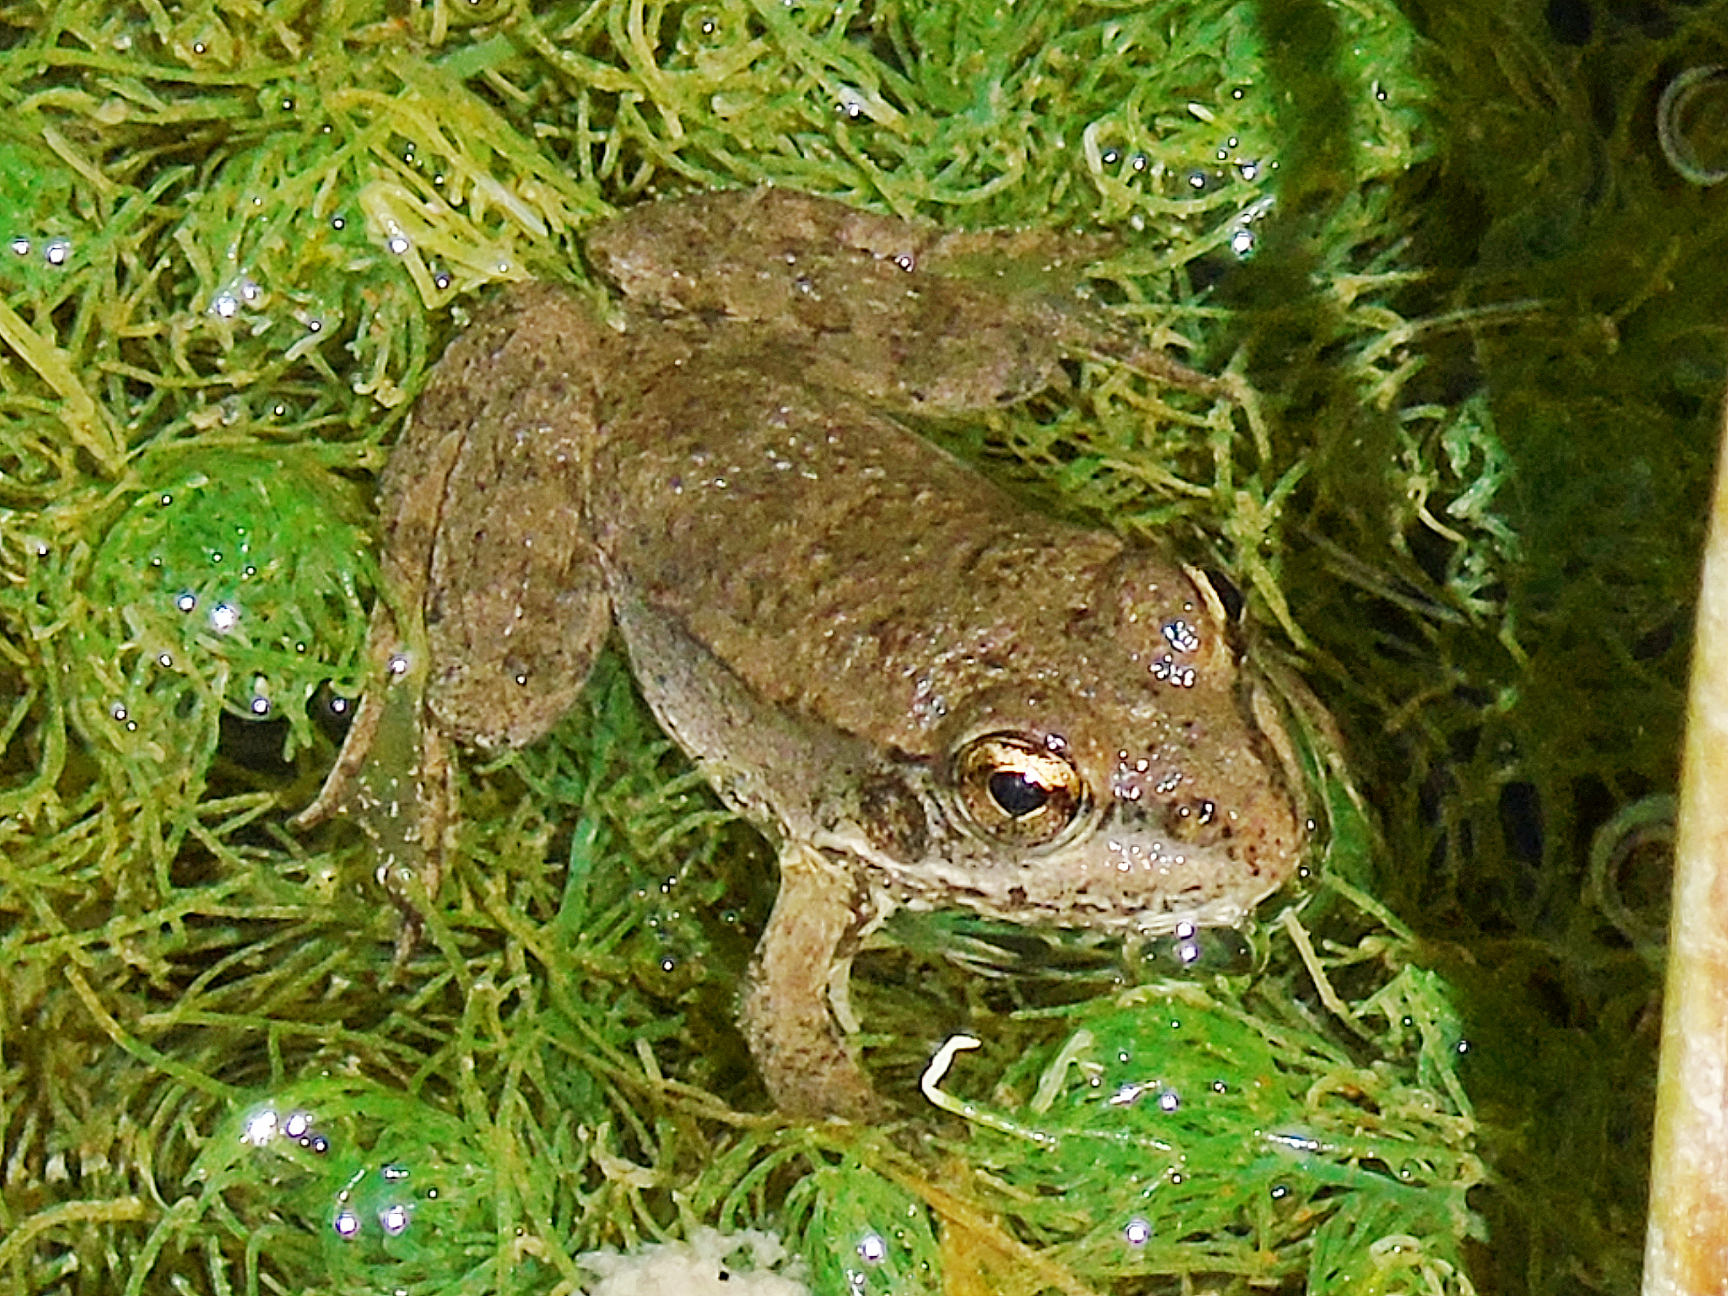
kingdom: Animalia
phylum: Chordata
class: Amphibia
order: Anura
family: Ranidae
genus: Pelophylax
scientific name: Pelophylax ridibundus
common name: Marsh frog
